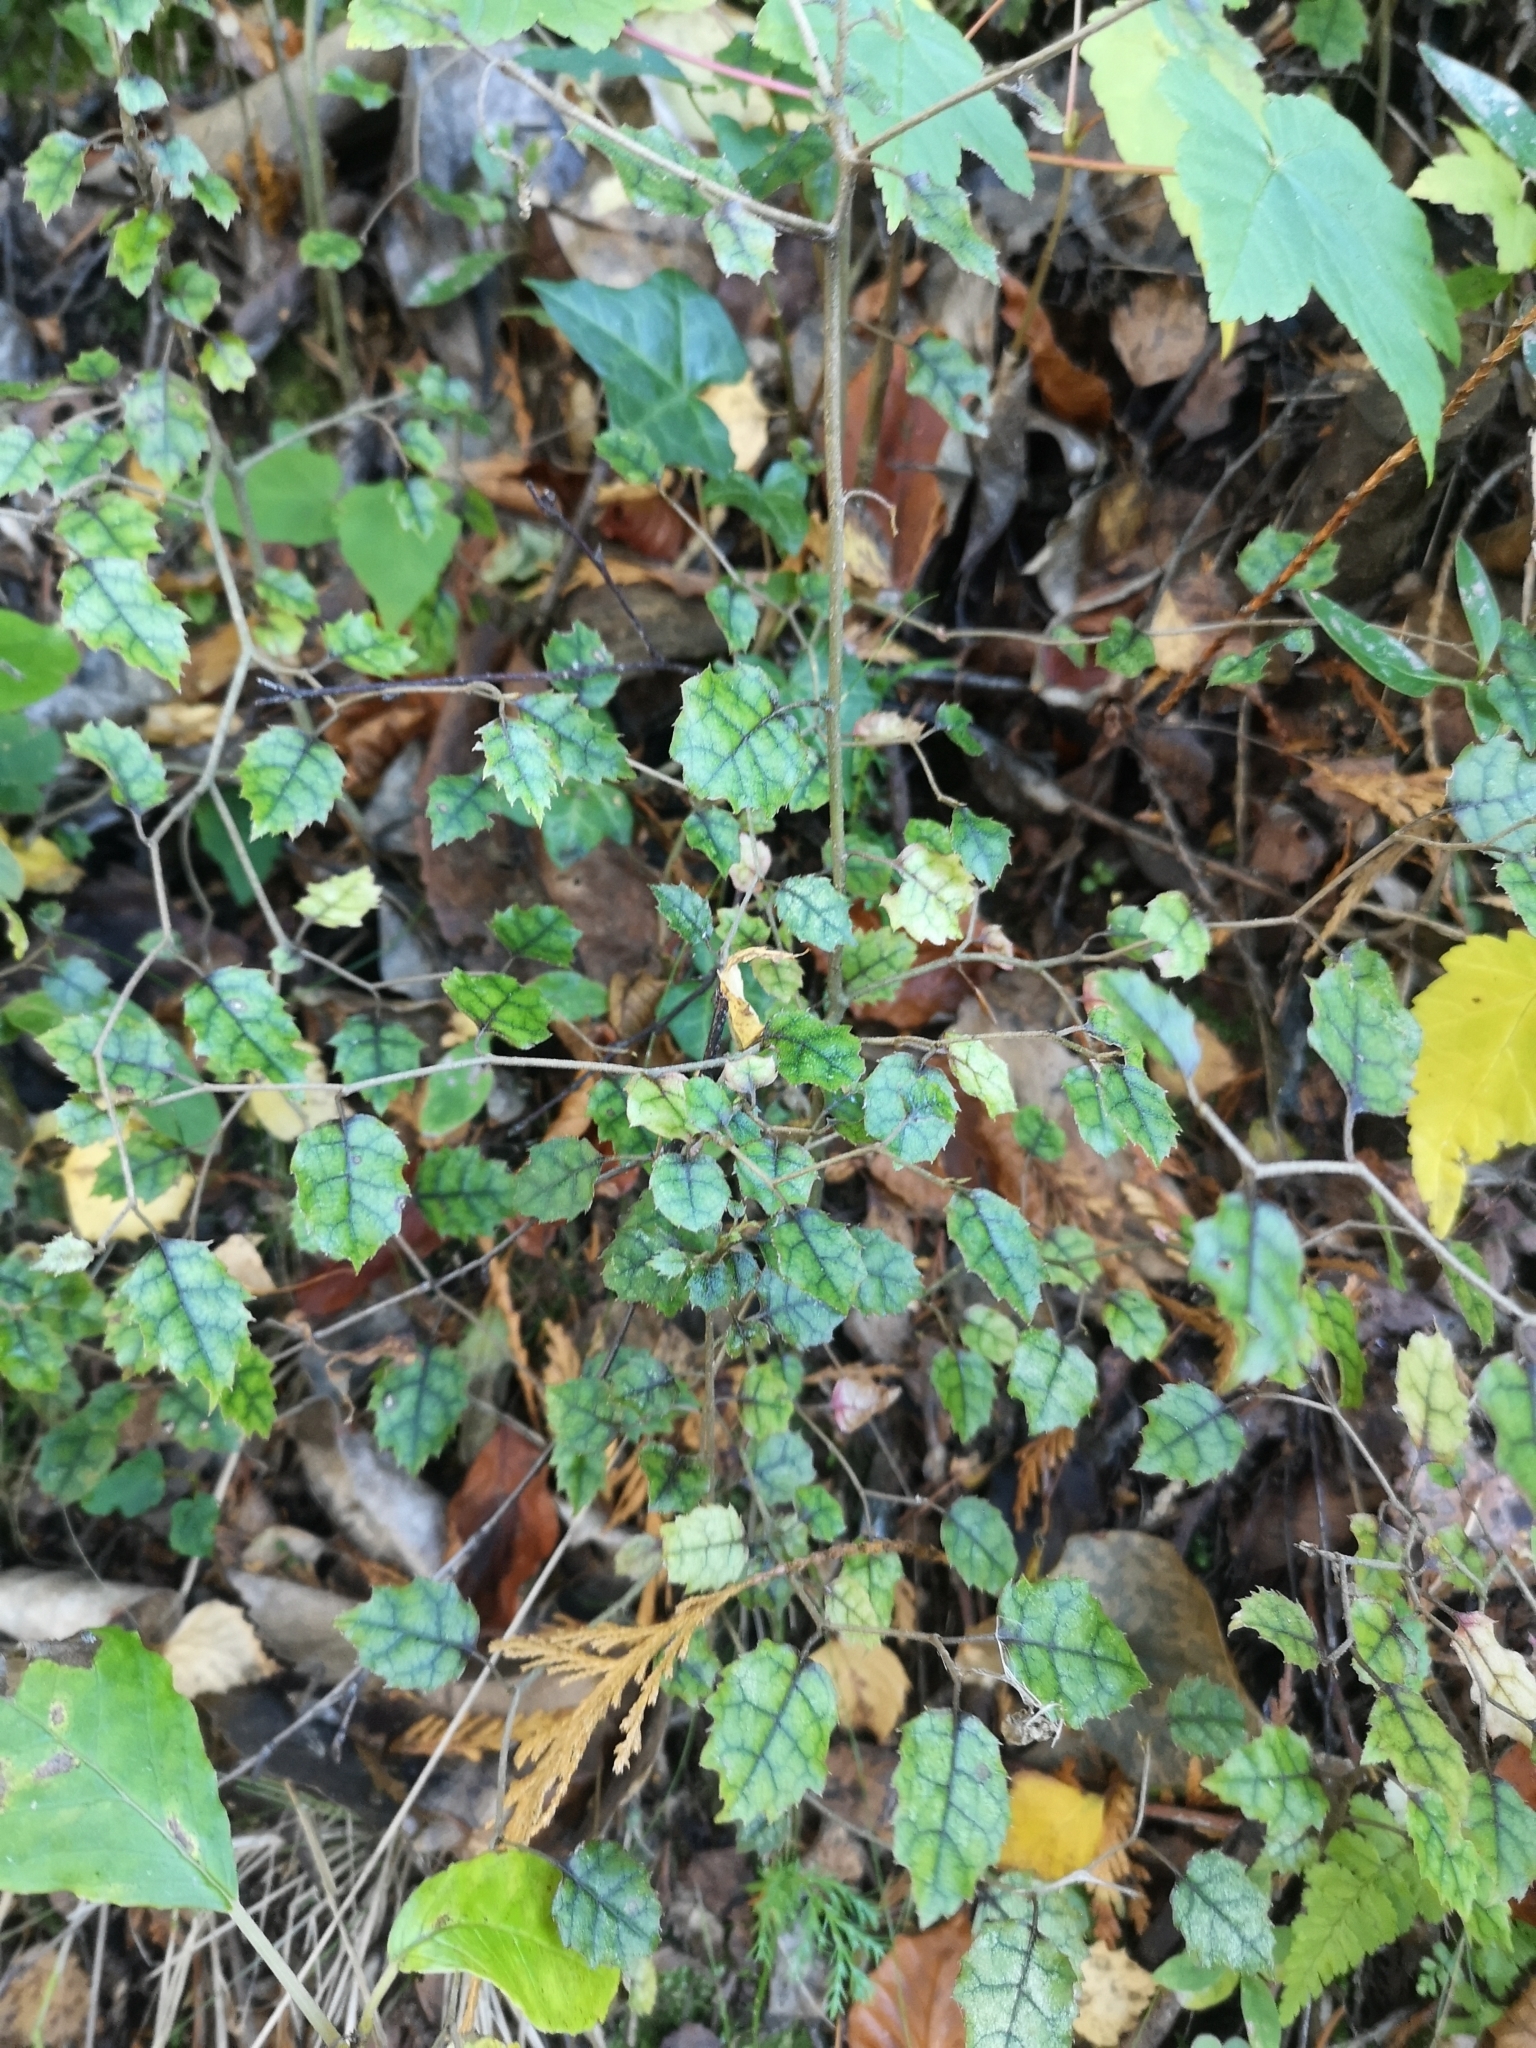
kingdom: Plantae
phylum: Tracheophyta
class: Magnoliopsida
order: Asterales
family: Rousseaceae
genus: Carpodetus
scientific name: Carpodetus serratus
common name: White mapau
